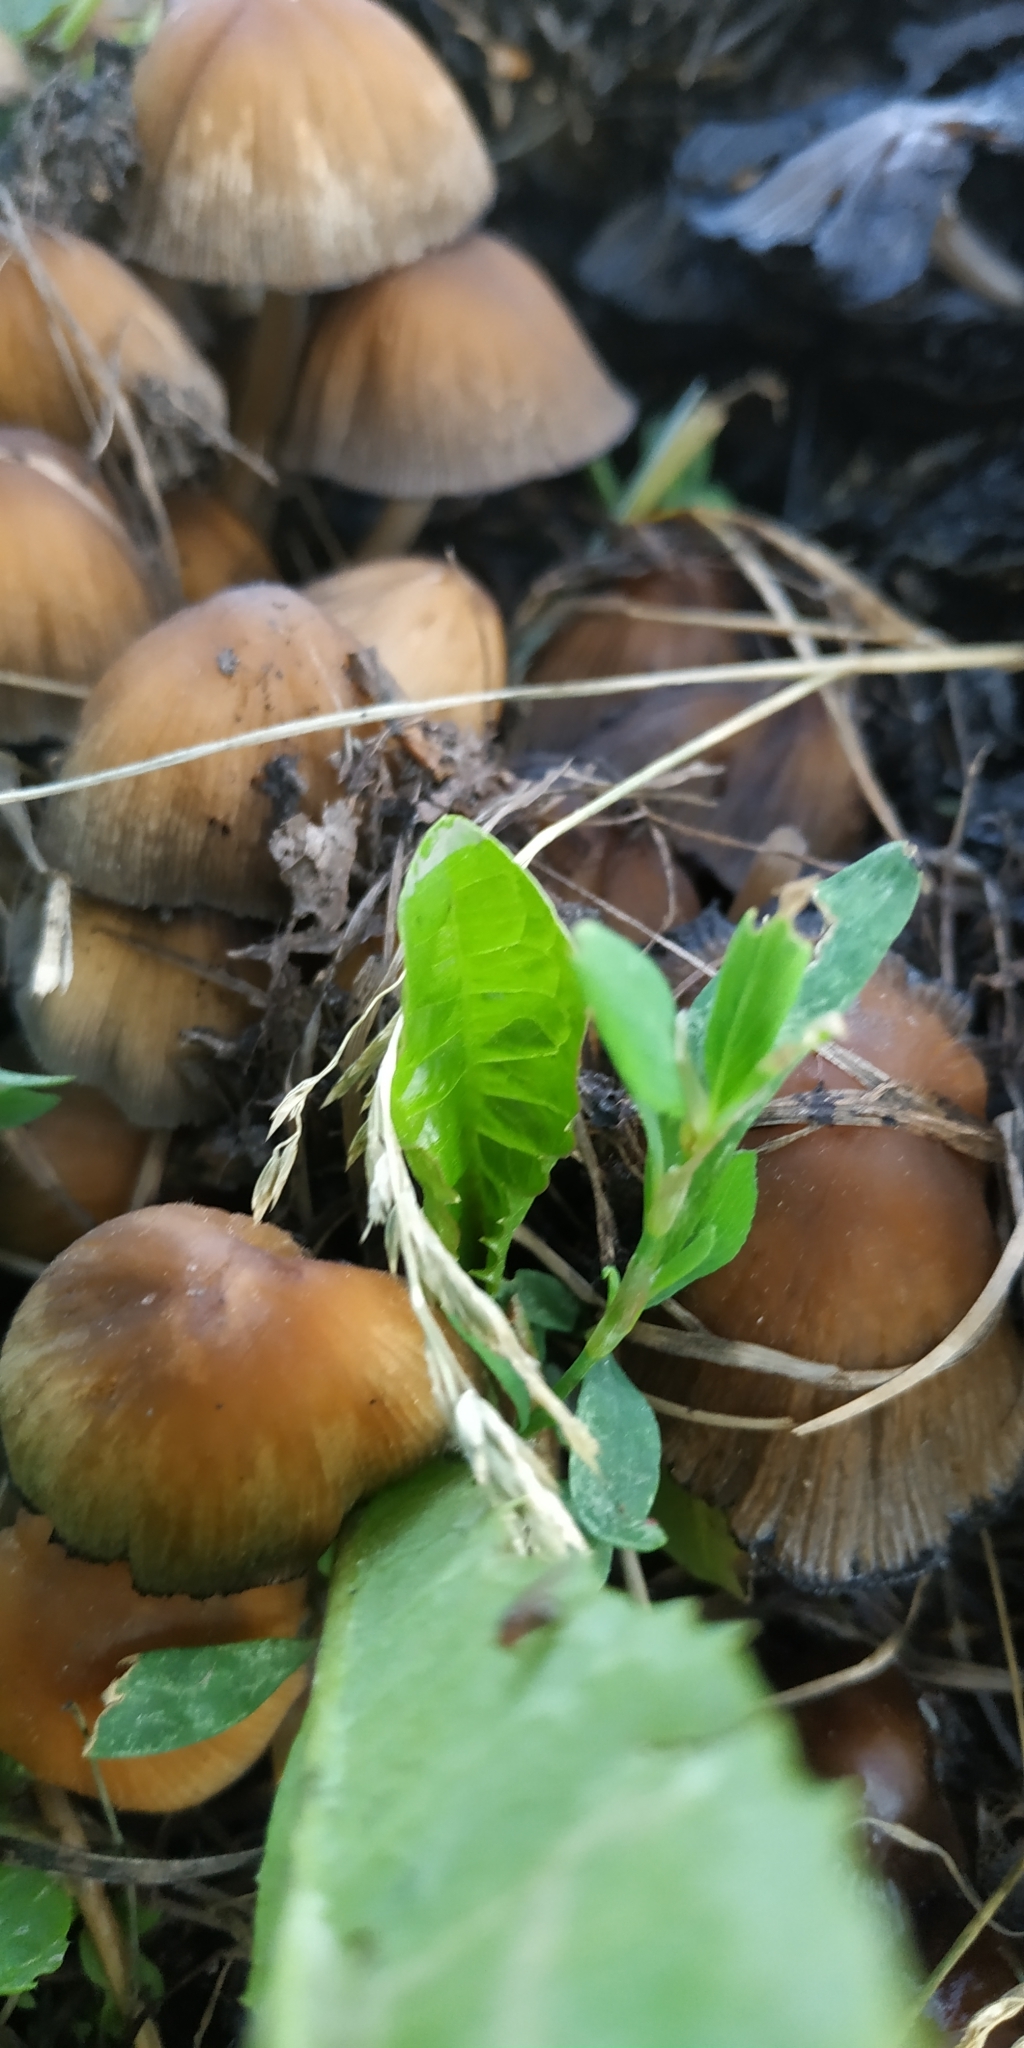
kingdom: Fungi
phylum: Basidiomycota
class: Agaricomycetes
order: Agaricales
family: Psathyrellaceae
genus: Coprinellus
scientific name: Coprinellus micaceus
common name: Glistening ink-cap
